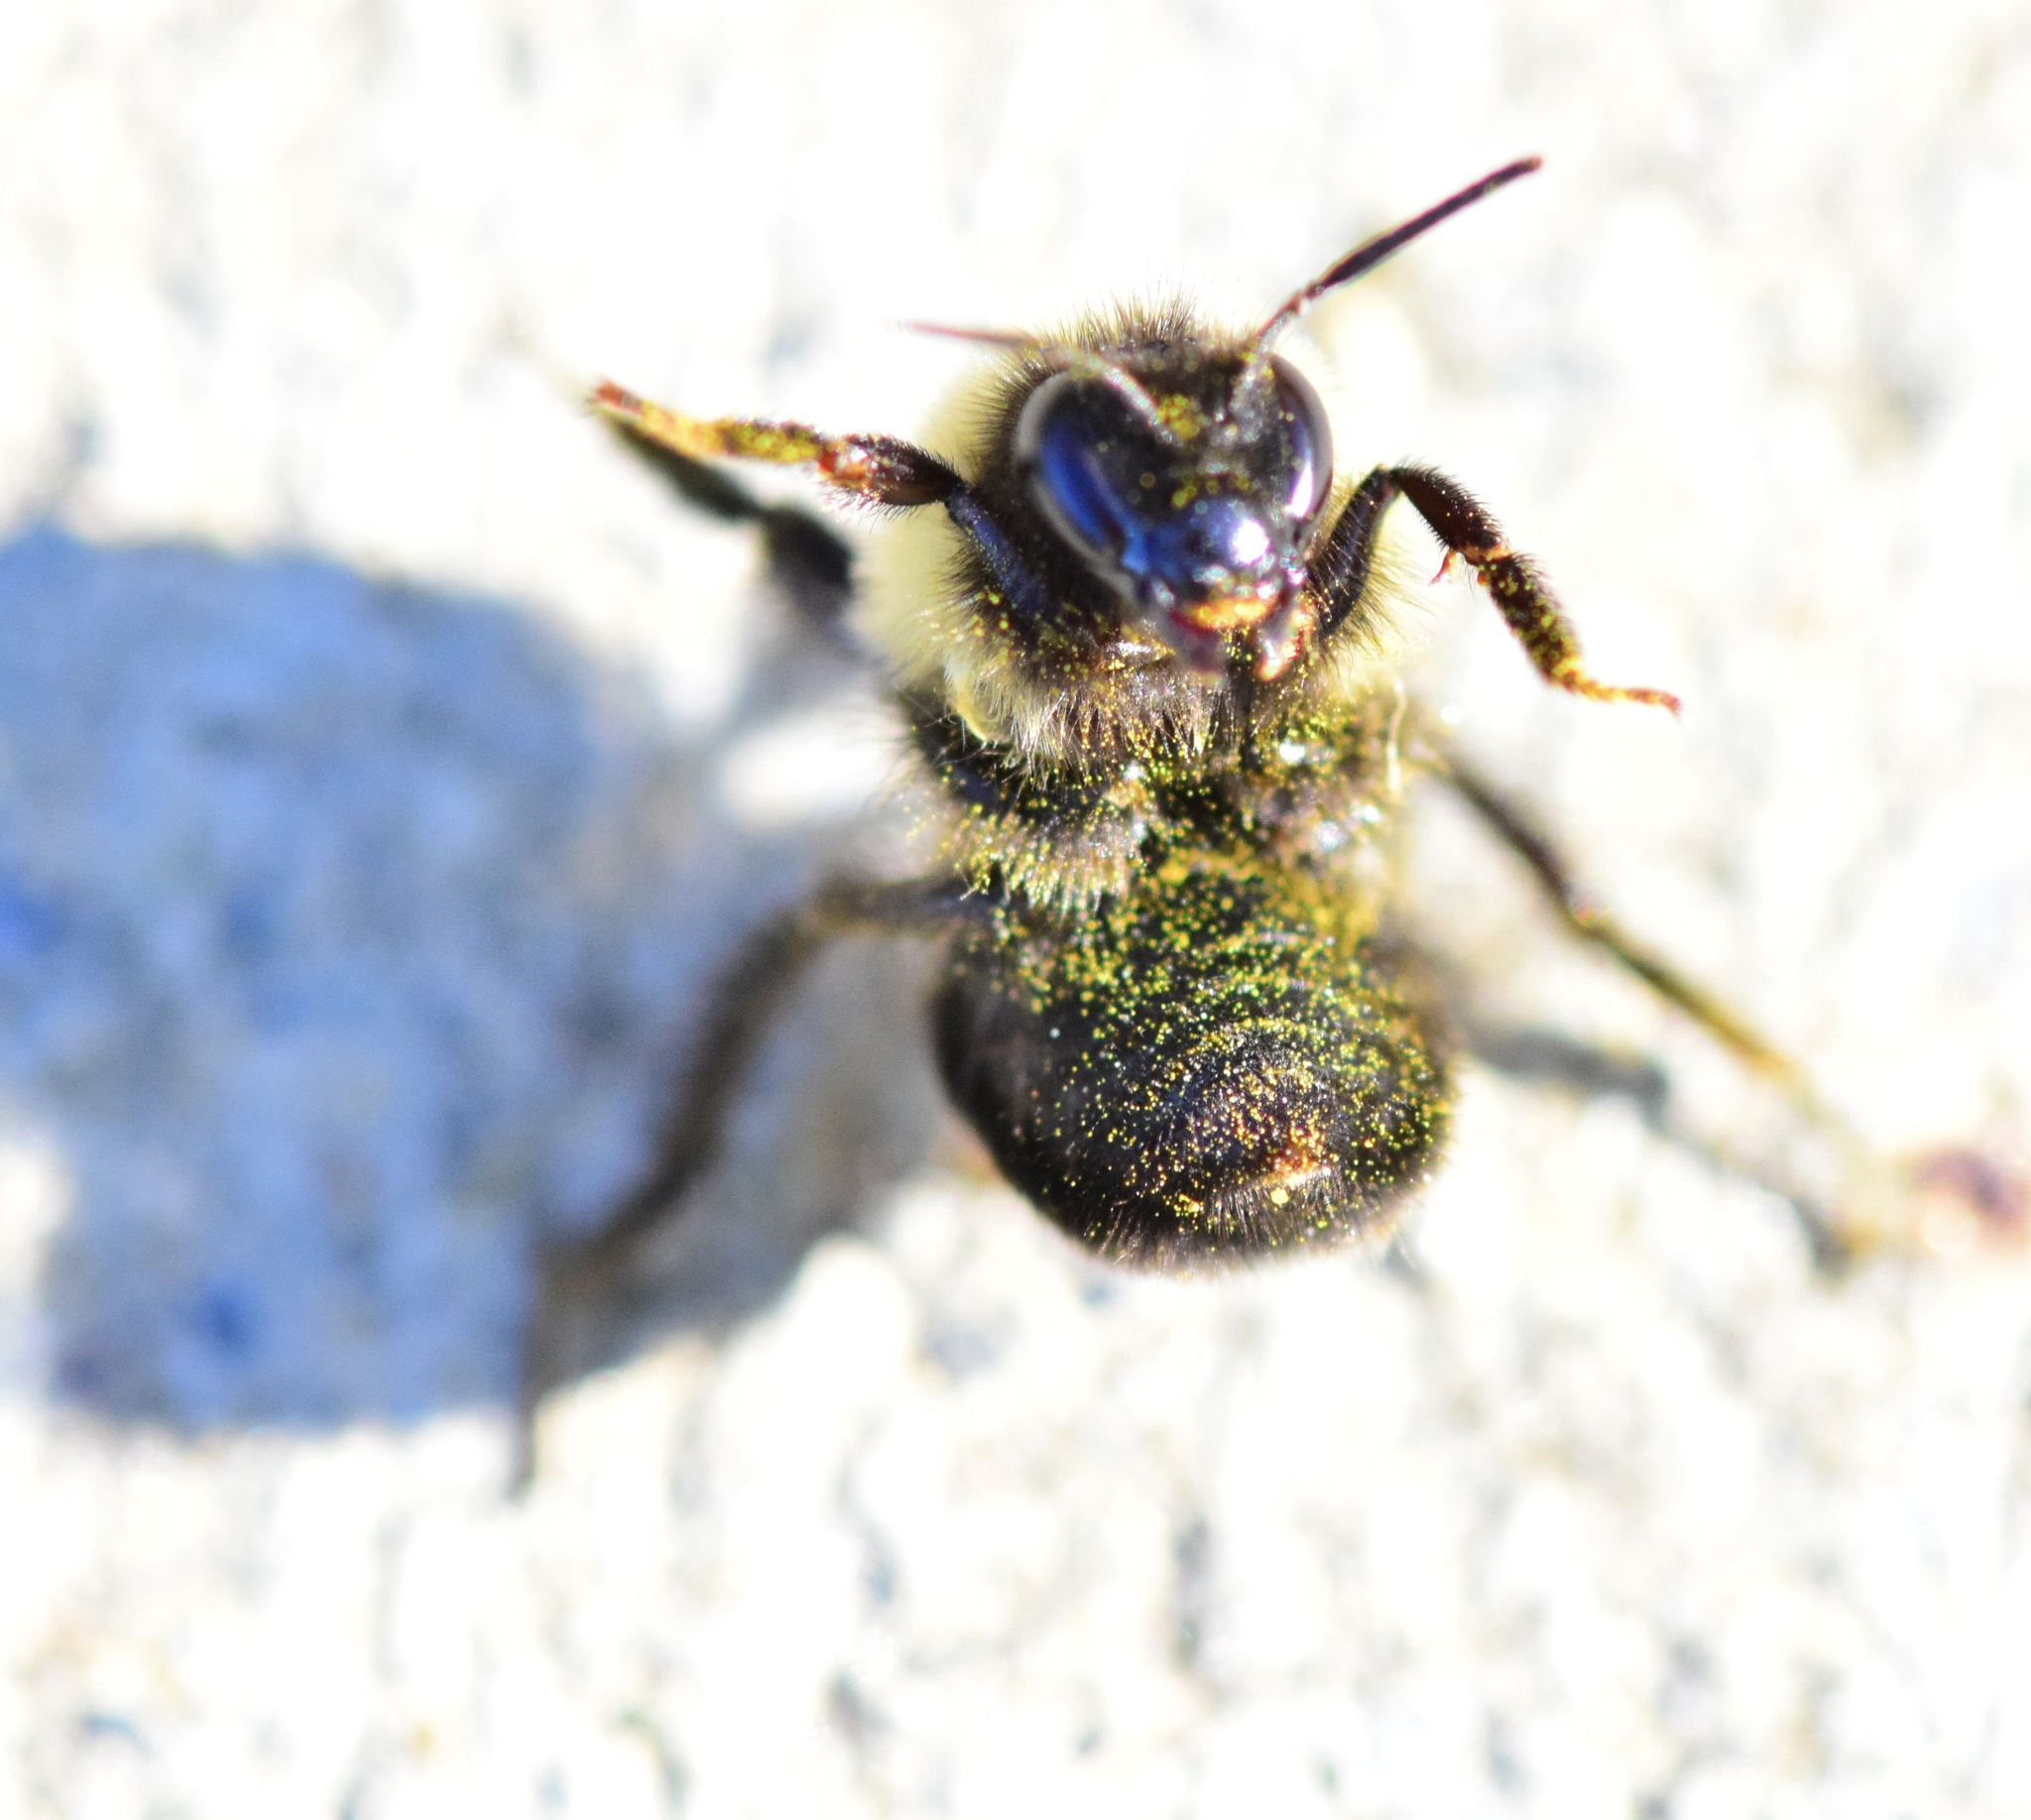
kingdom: Animalia
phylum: Arthropoda
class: Insecta
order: Hymenoptera
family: Apidae
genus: Bombus
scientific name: Bombus
